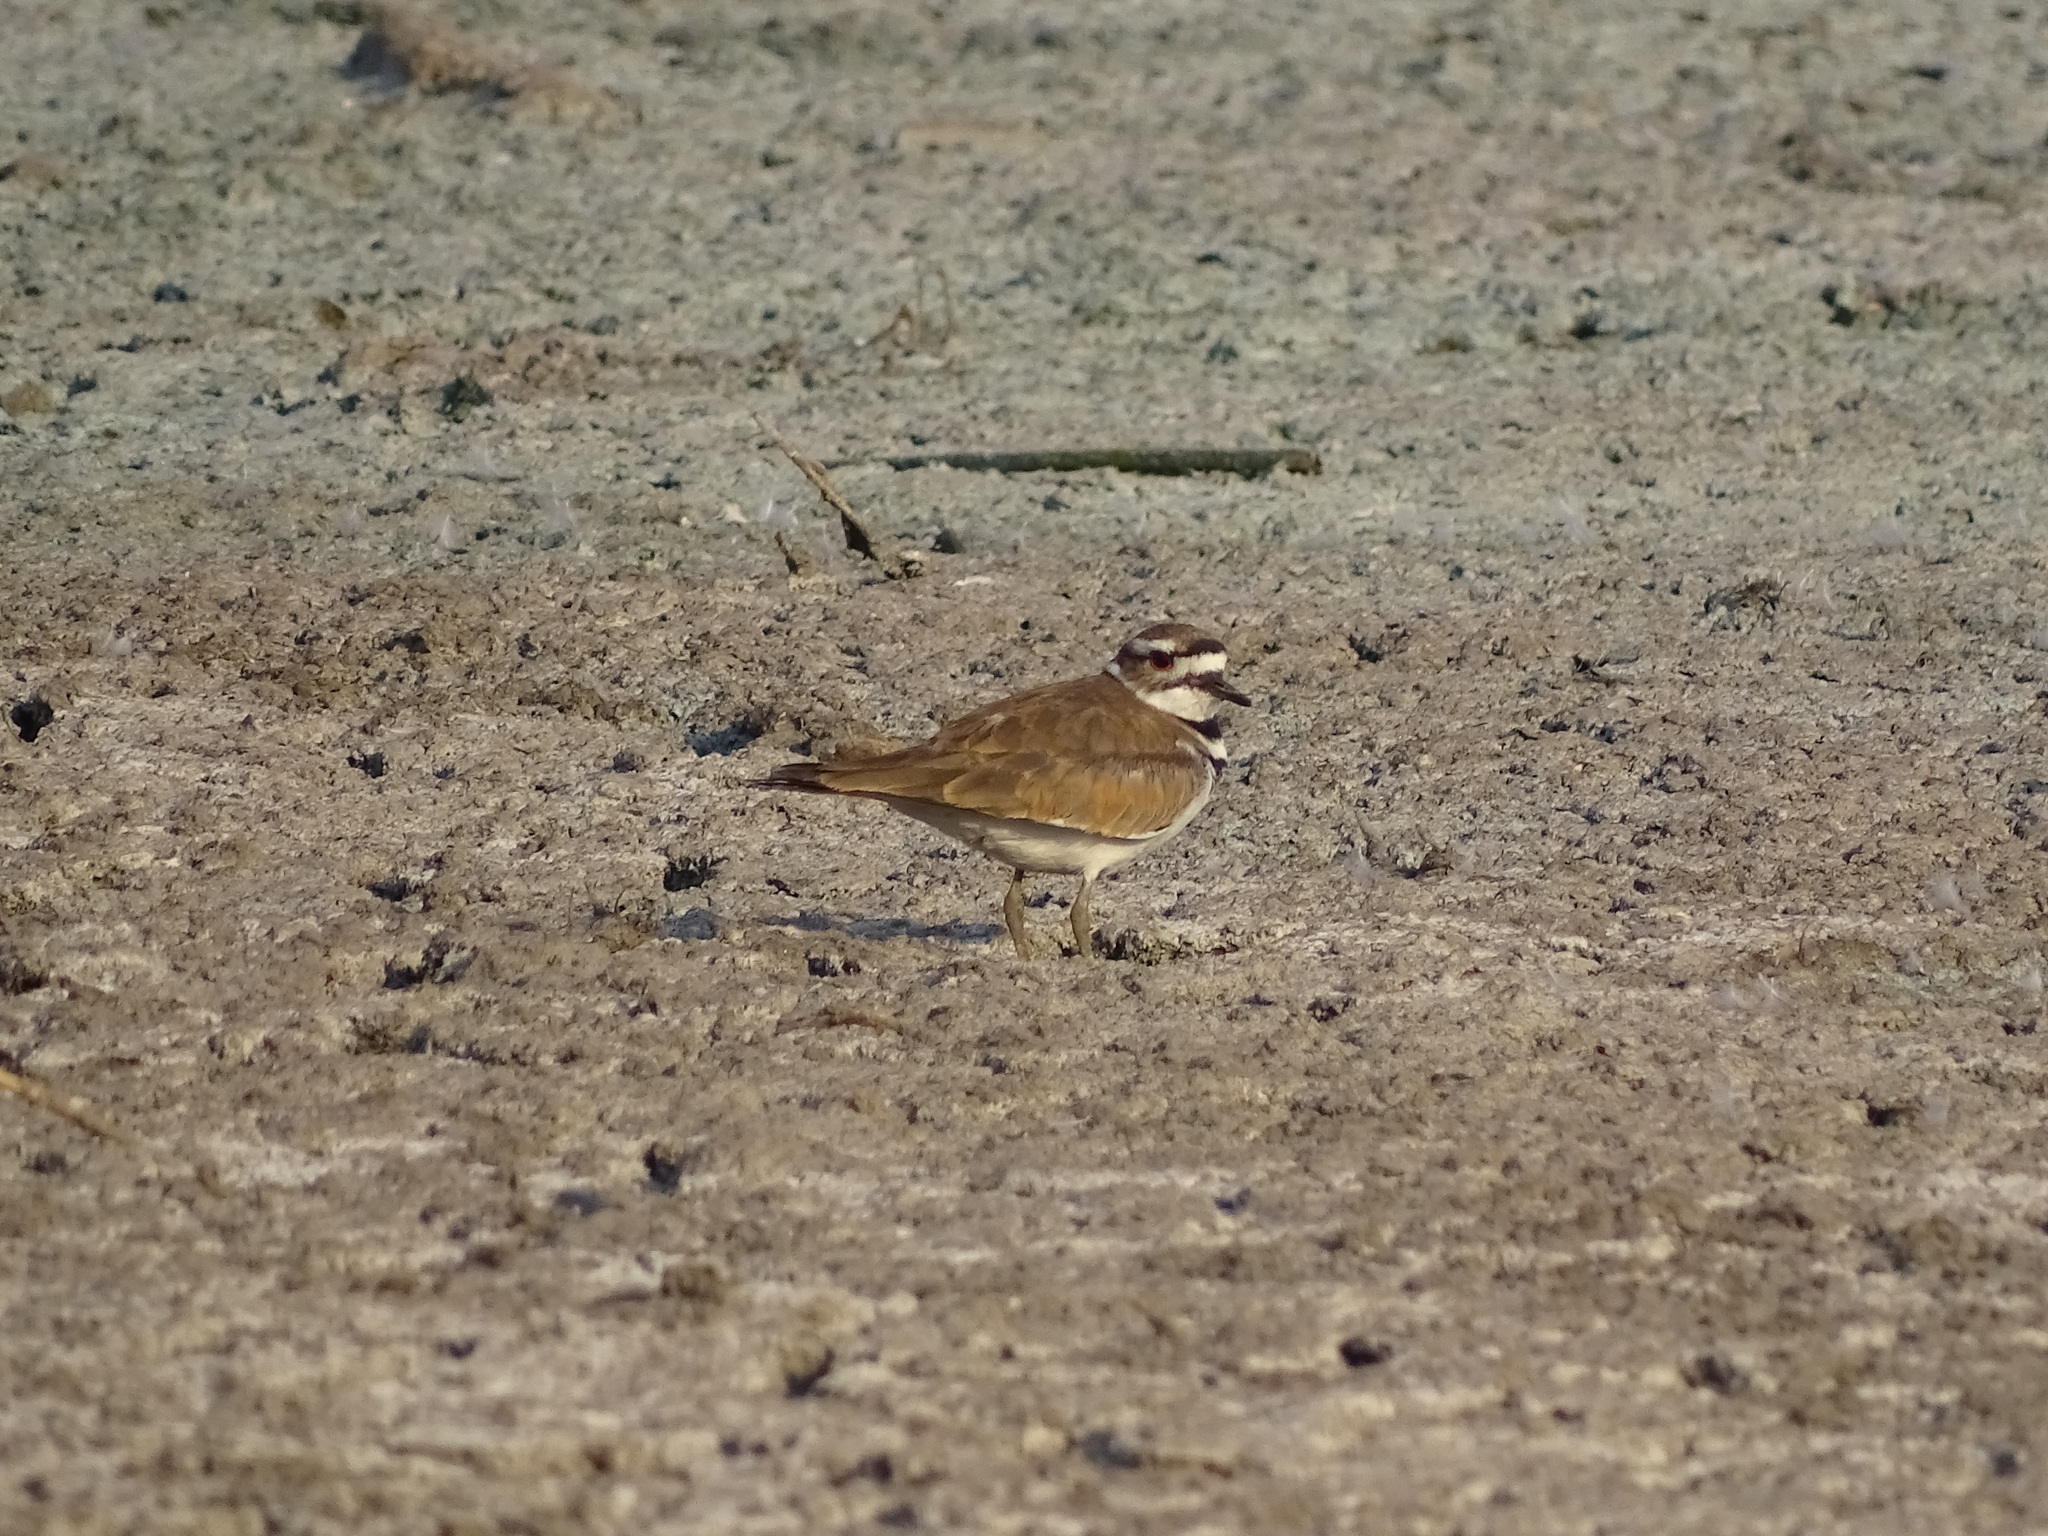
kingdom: Animalia
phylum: Chordata
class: Aves
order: Charadriiformes
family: Charadriidae
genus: Charadrius
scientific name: Charadrius vociferus
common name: Killdeer
